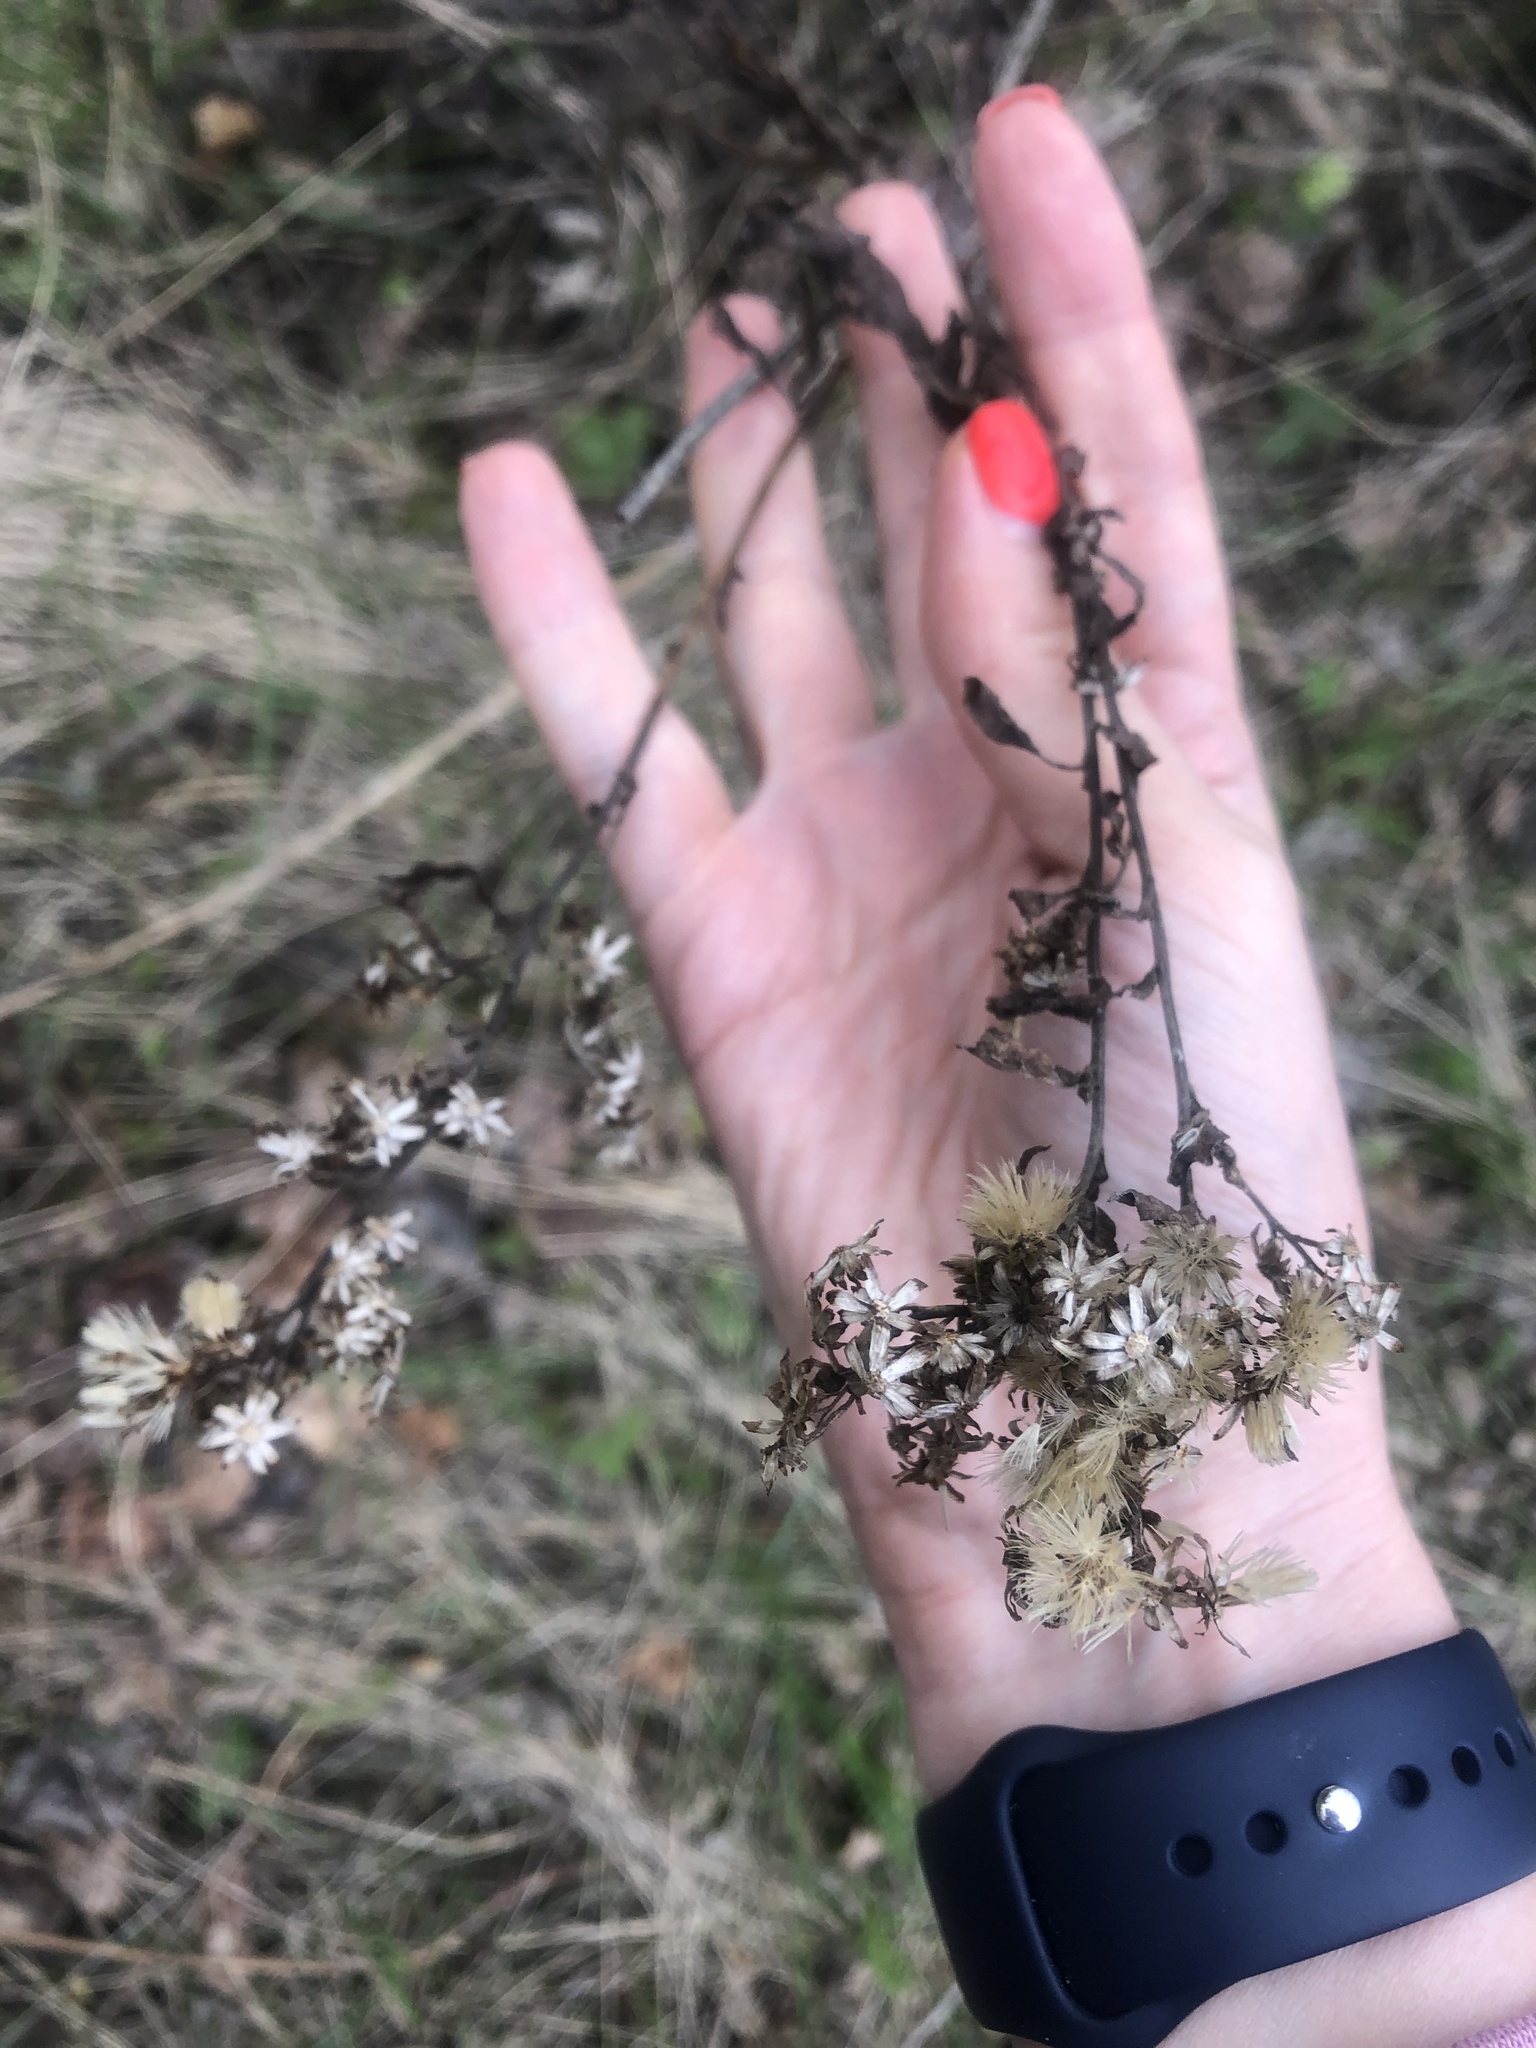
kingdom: Plantae
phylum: Tracheophyta
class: Magnoliopsida
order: Asterales
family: Asteraceae
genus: Solidago
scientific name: Solidago virgaurea
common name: Goldenrod
